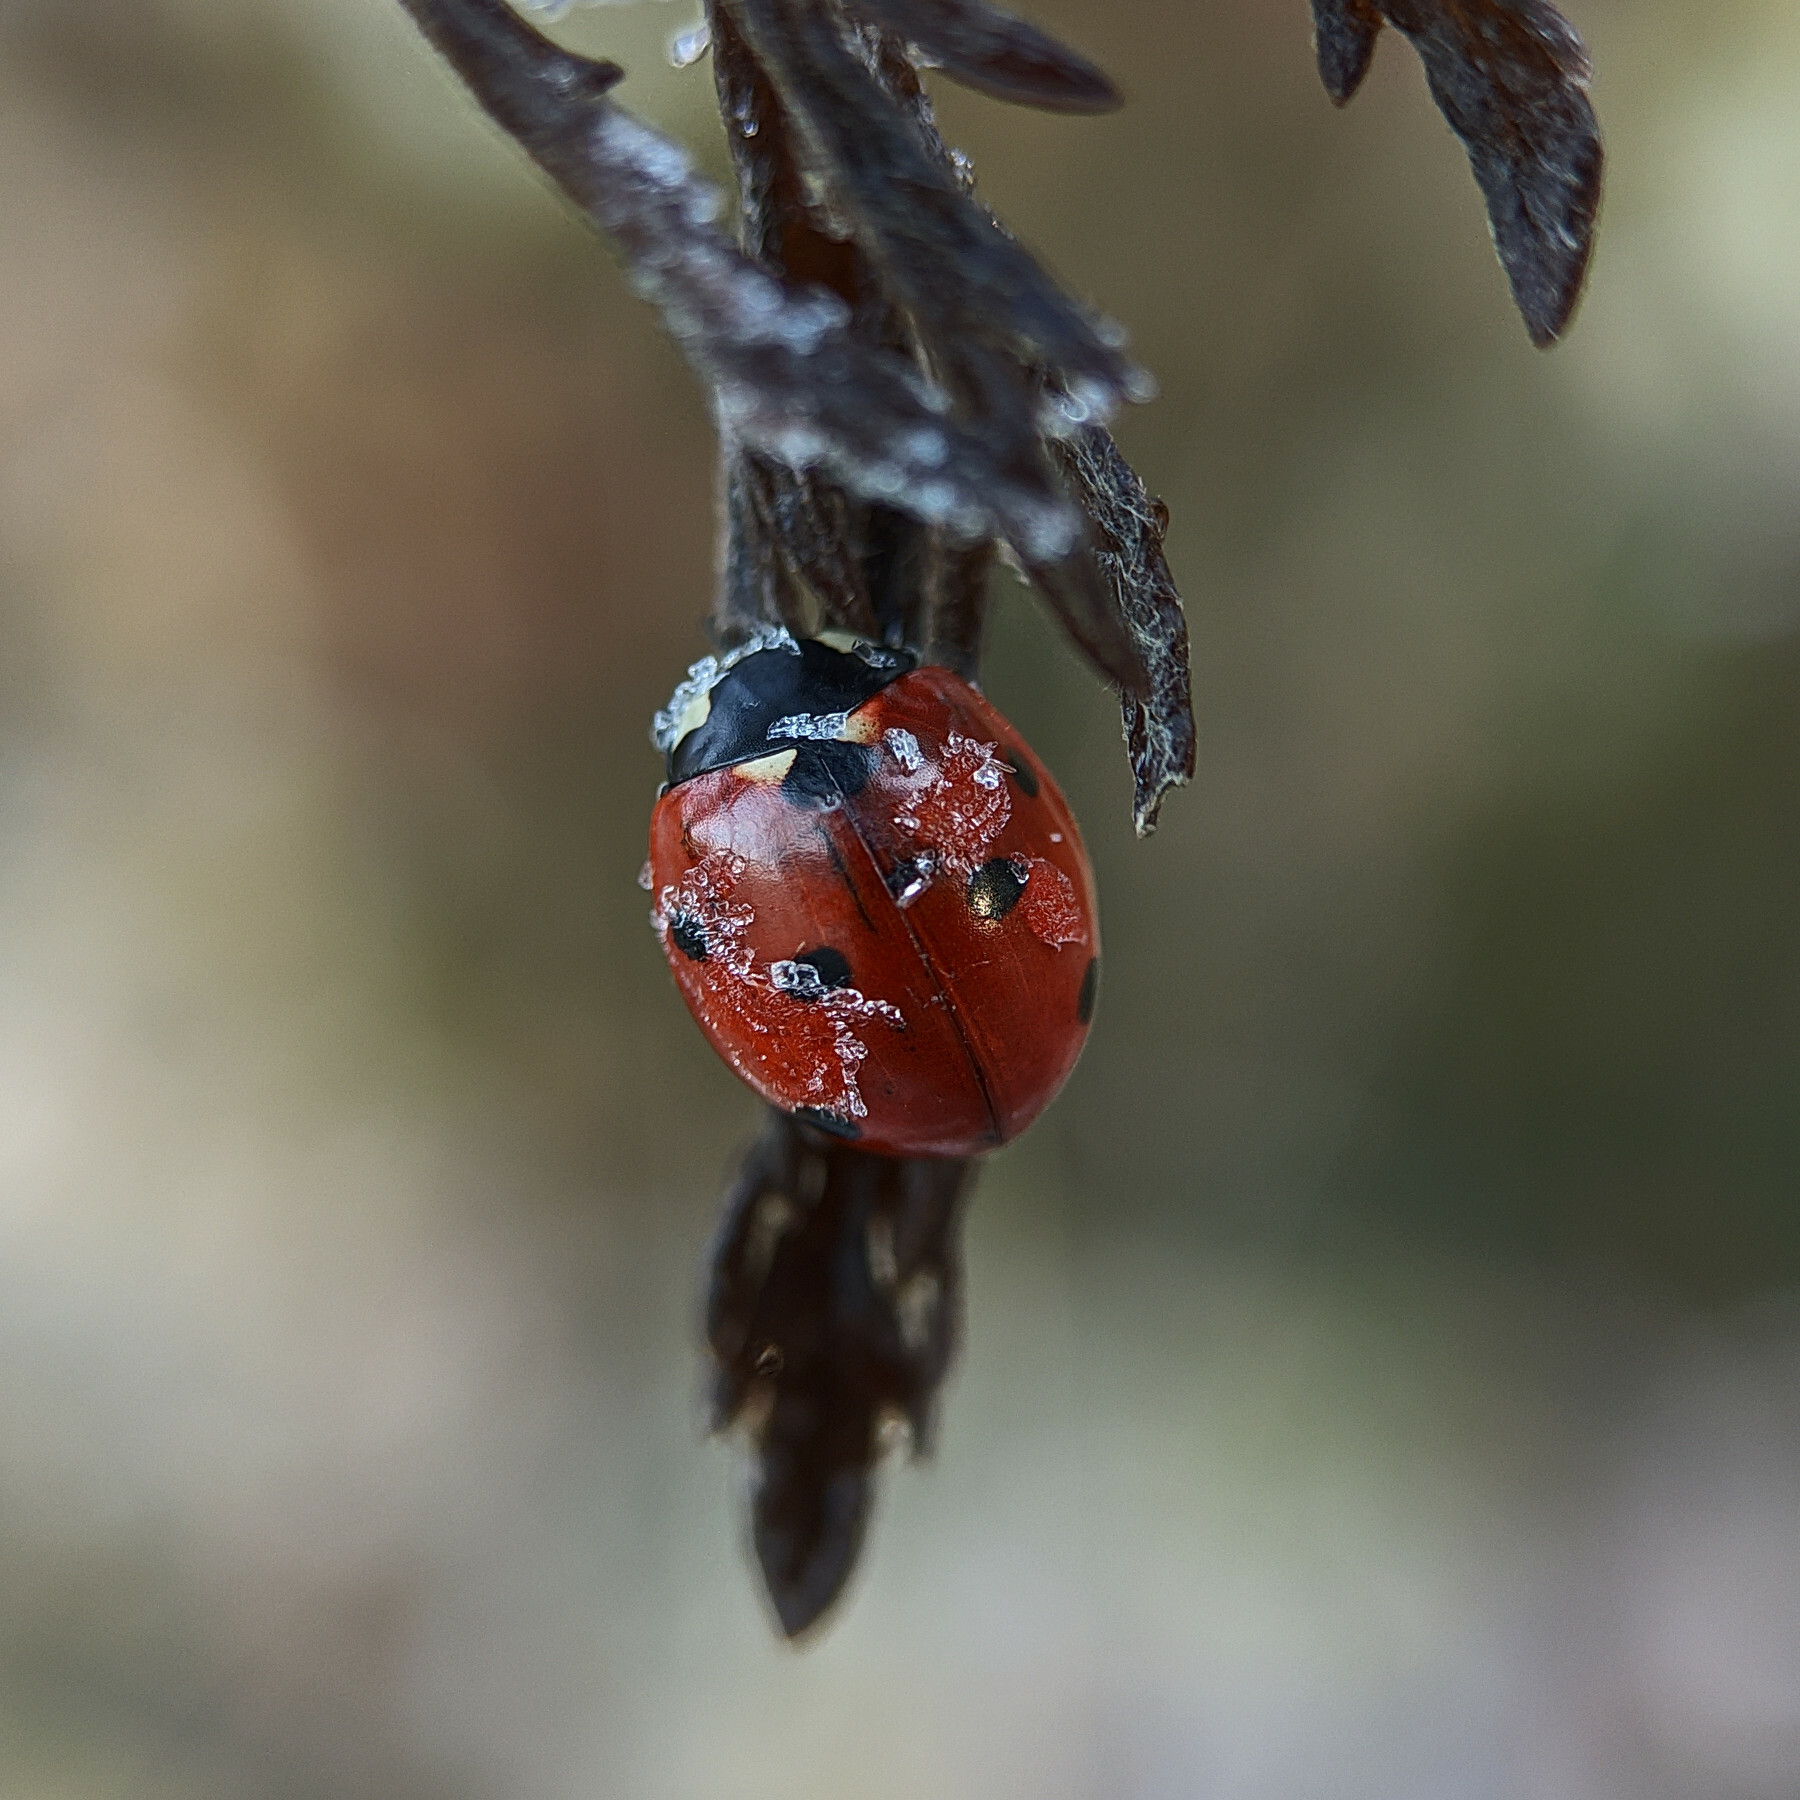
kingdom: Animalia
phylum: Arthropoda
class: Insecta
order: Coleoptera
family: Coccinellidae
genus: Coccinella
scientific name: Coccinella septempunctata
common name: Sevenspotted lady beetle
